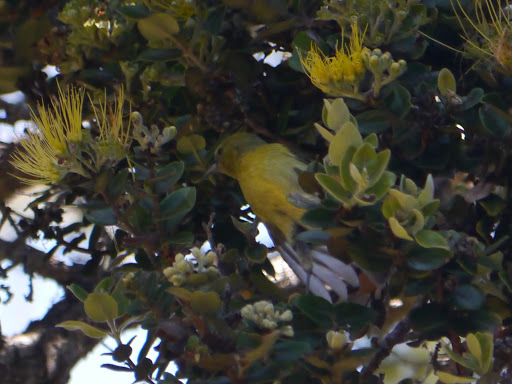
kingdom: Animalia
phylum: Chordata
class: Aves
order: Passeriformes
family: Fringillidae
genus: Chlorodrepanis
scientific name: Chlorodrepanis virens
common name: Hawaii amakihi
